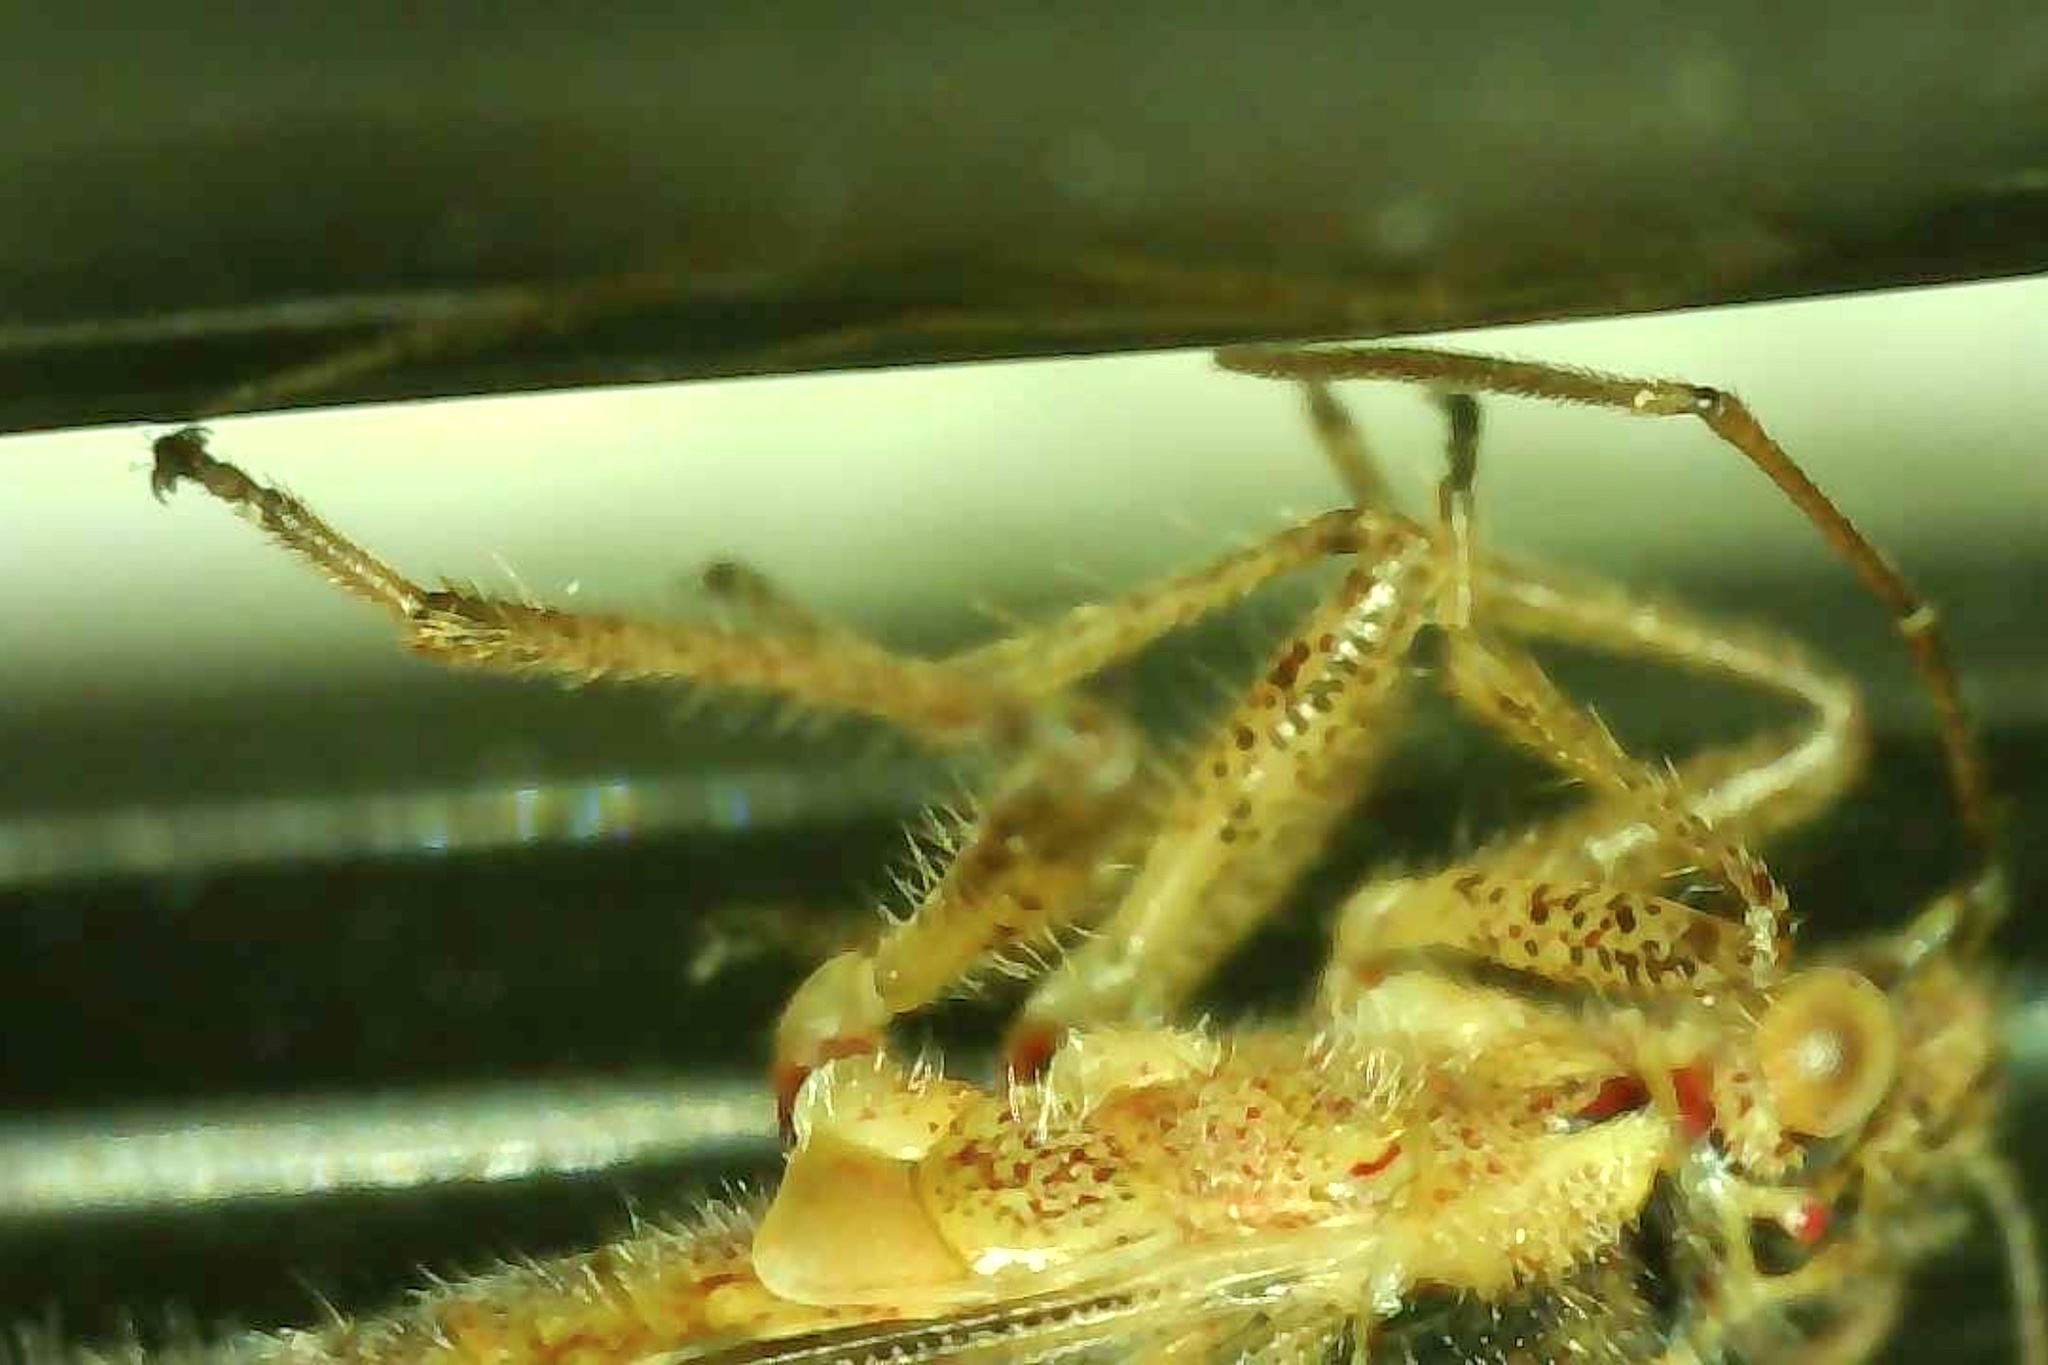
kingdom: Animalia
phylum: Arthropoda
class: Insecta
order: Hemiptera
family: Rhopalidae
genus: Liorhyssus
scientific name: Liorhyssus hyalinus
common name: Scentless plant bug
